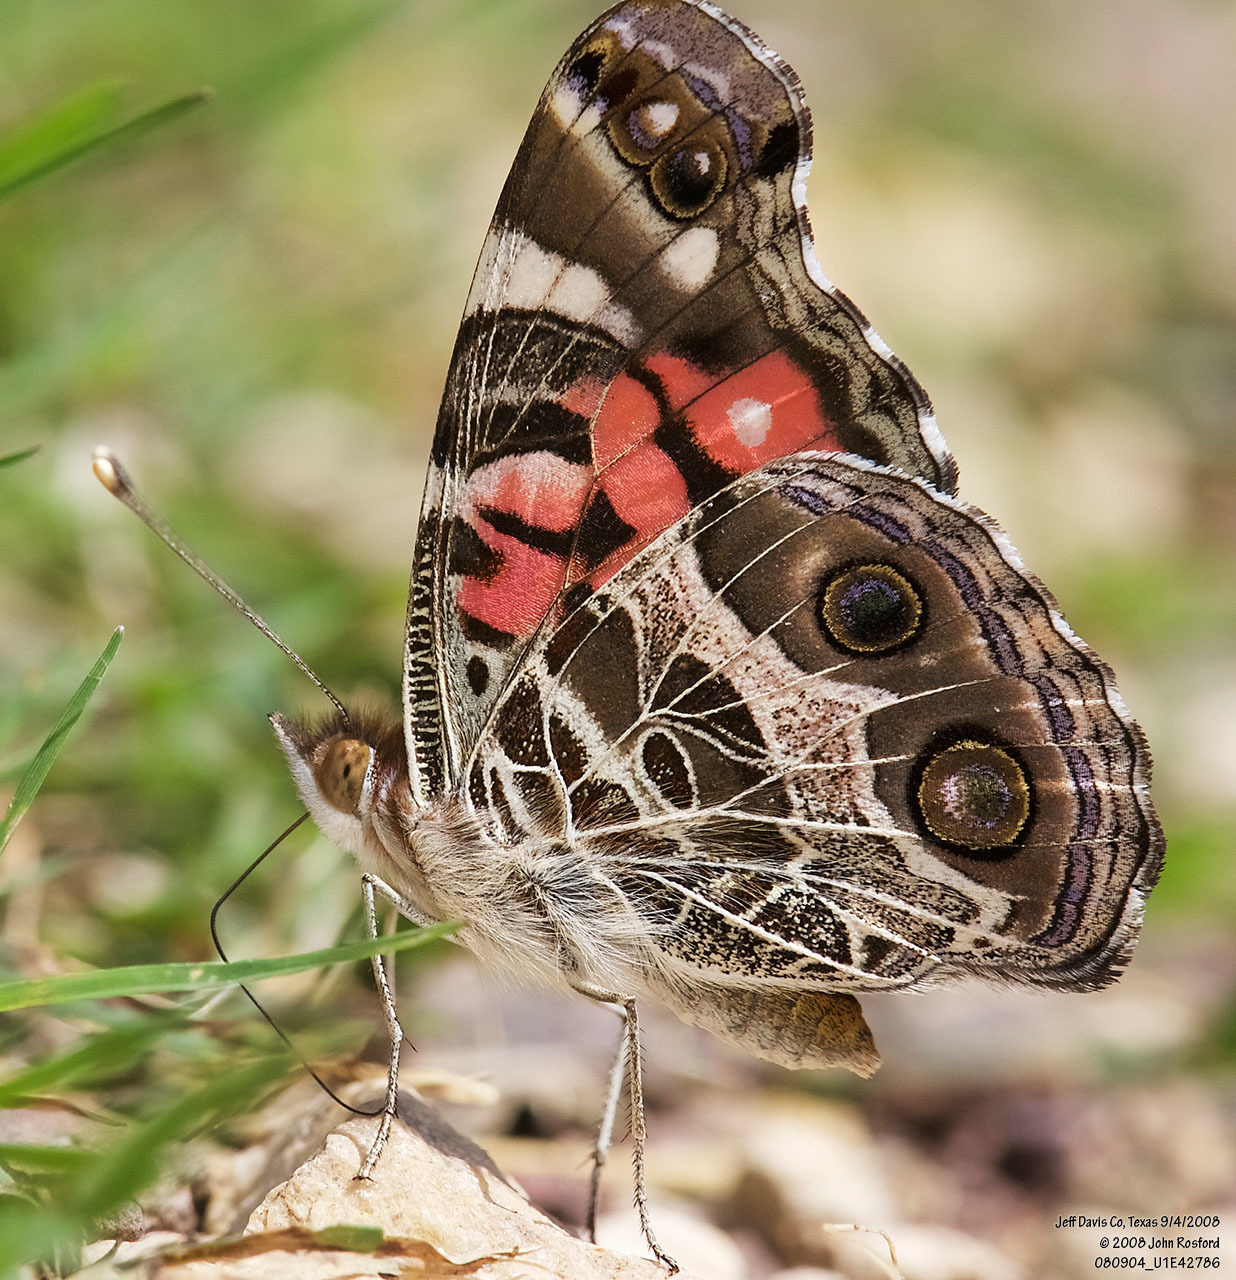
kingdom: Animalia
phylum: Arthropoda
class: Insecta
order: Lepidoptera
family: Nymphalidae
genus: Vanessa
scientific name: Vanessa virginiensis
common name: American lady
